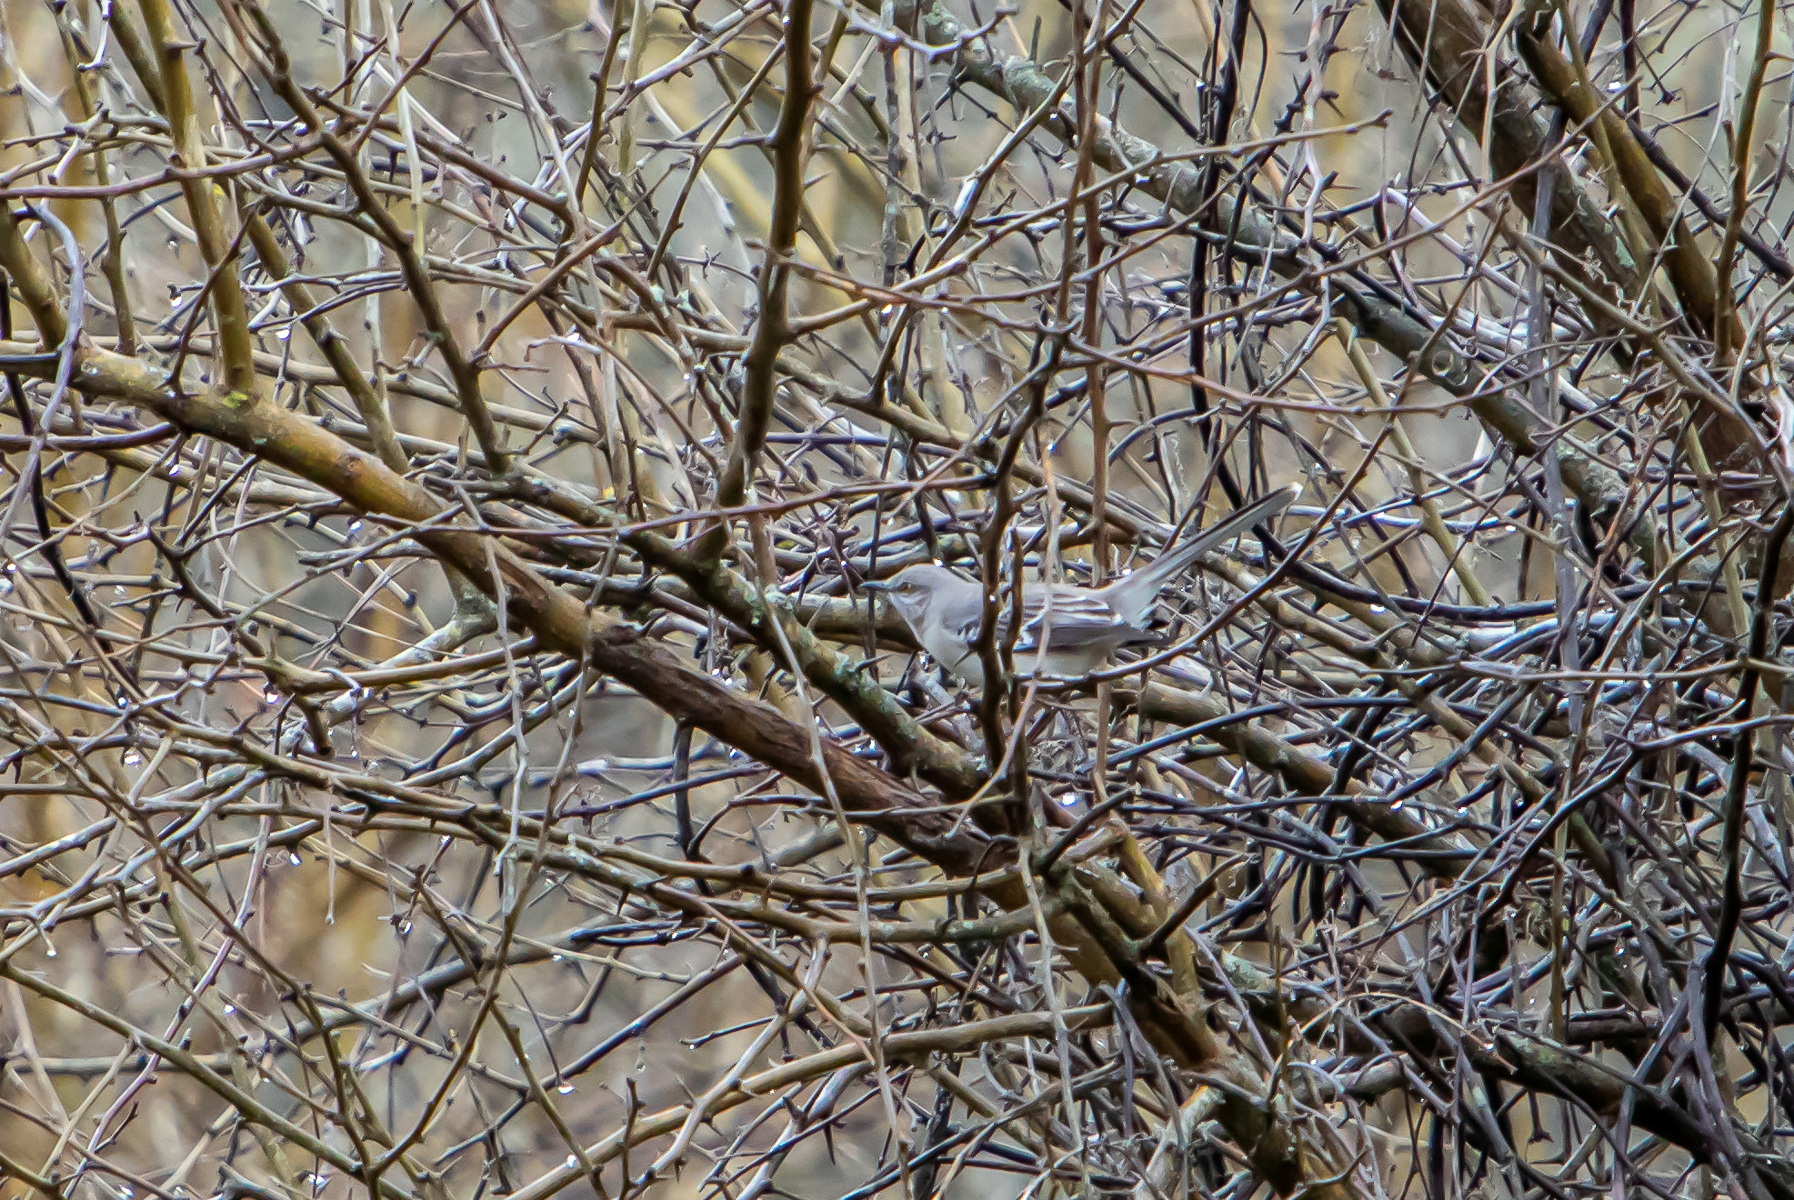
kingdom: Animalia
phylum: Chordata
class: Aves
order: Passeriformes
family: Mimidae
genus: Mimus
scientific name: Mimus polyglottos
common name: Northern mockingbird
